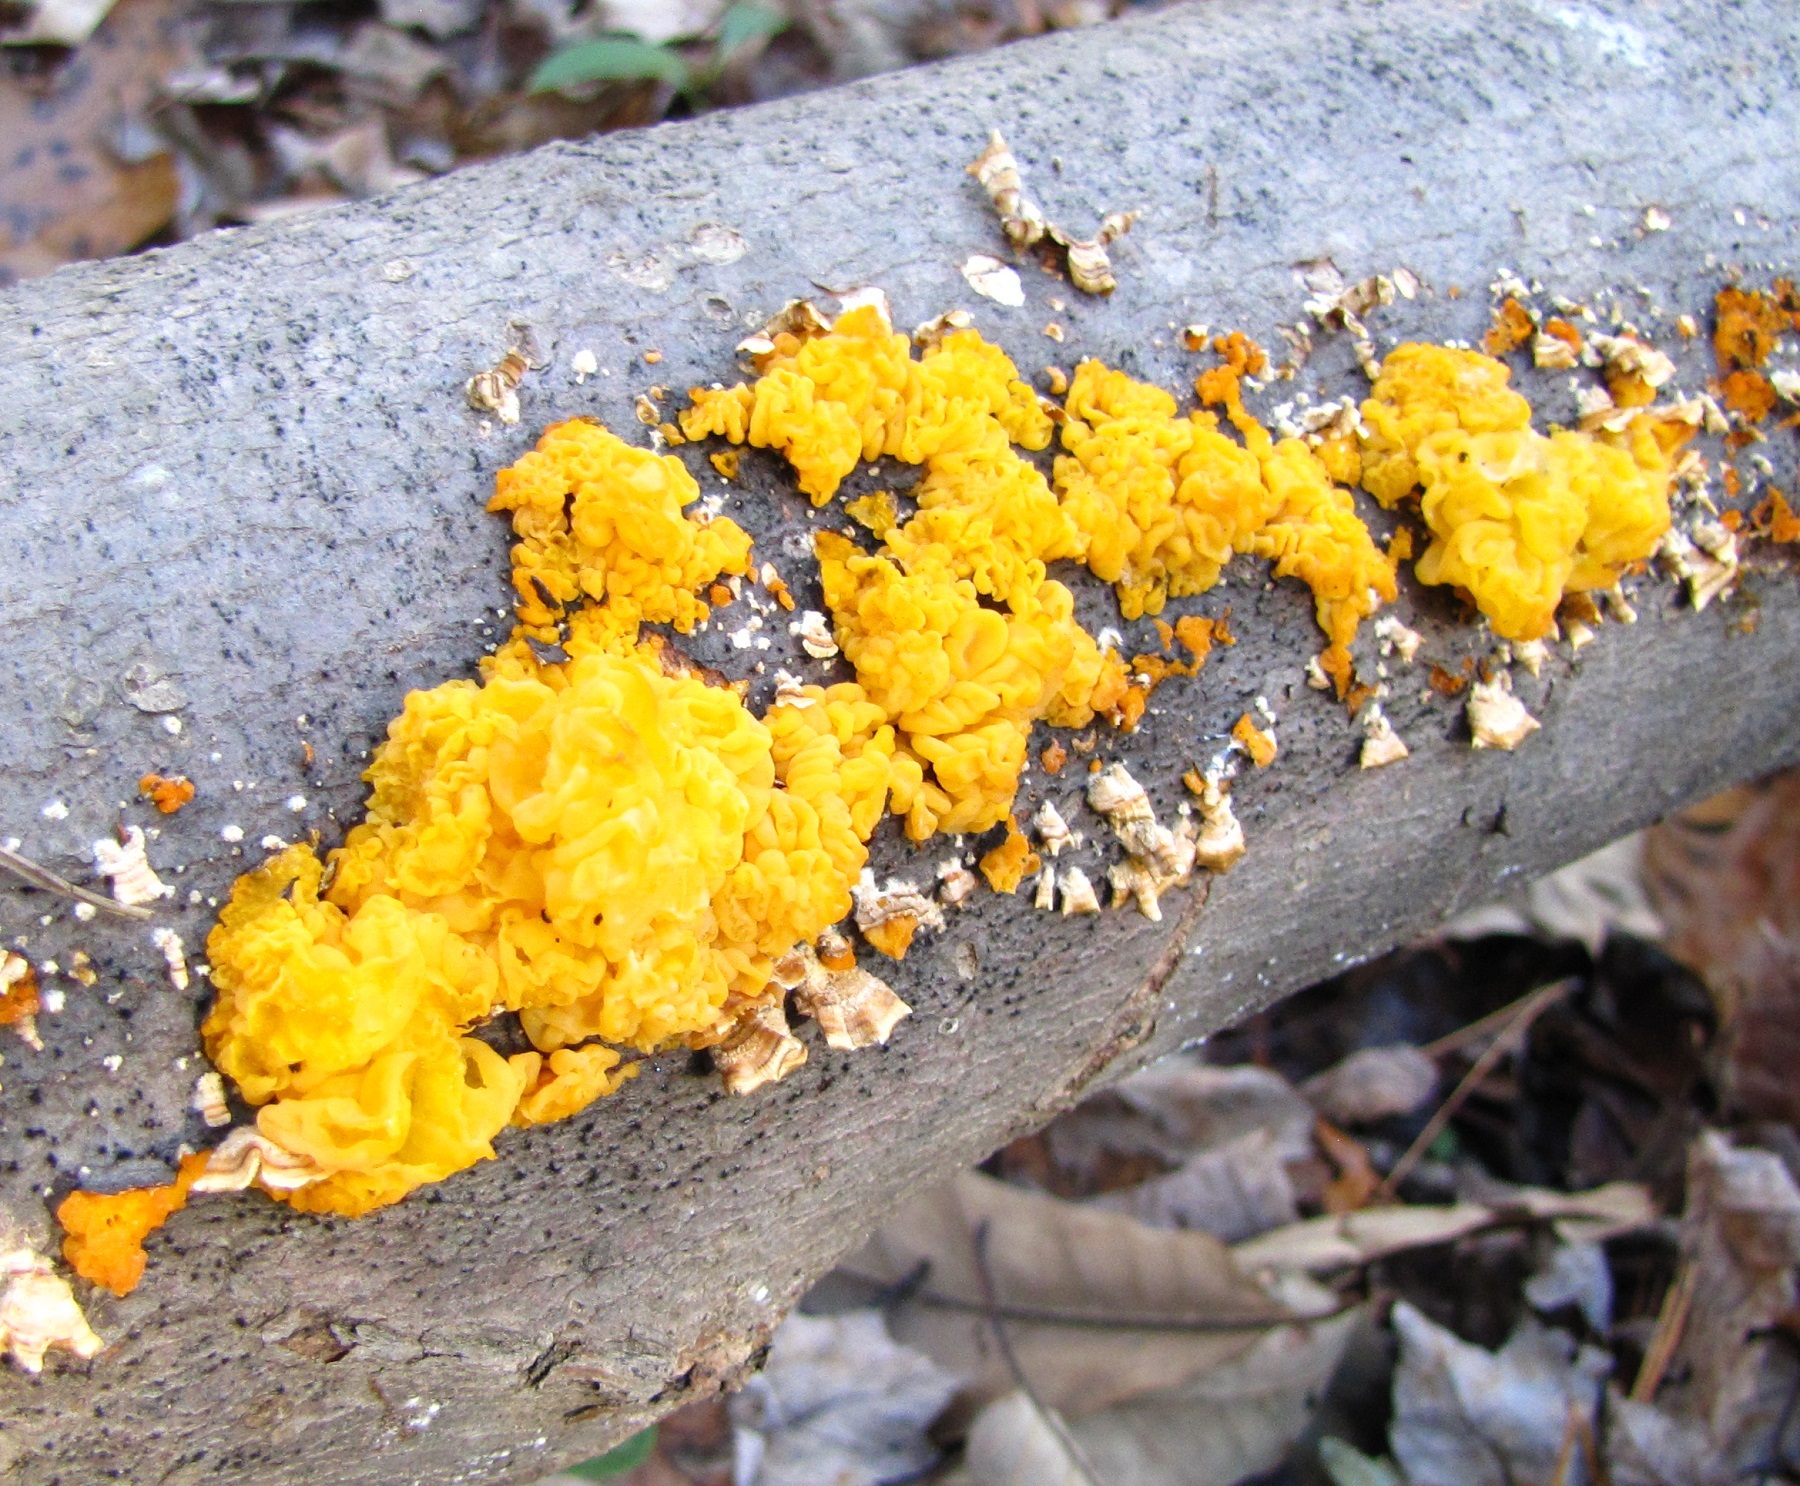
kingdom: Fungi
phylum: Basidiomycota
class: Tremellomycetes
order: Tremellales
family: Naemateliaceae
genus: Naematelia
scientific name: Naematelia aurantia
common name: Golden ear
